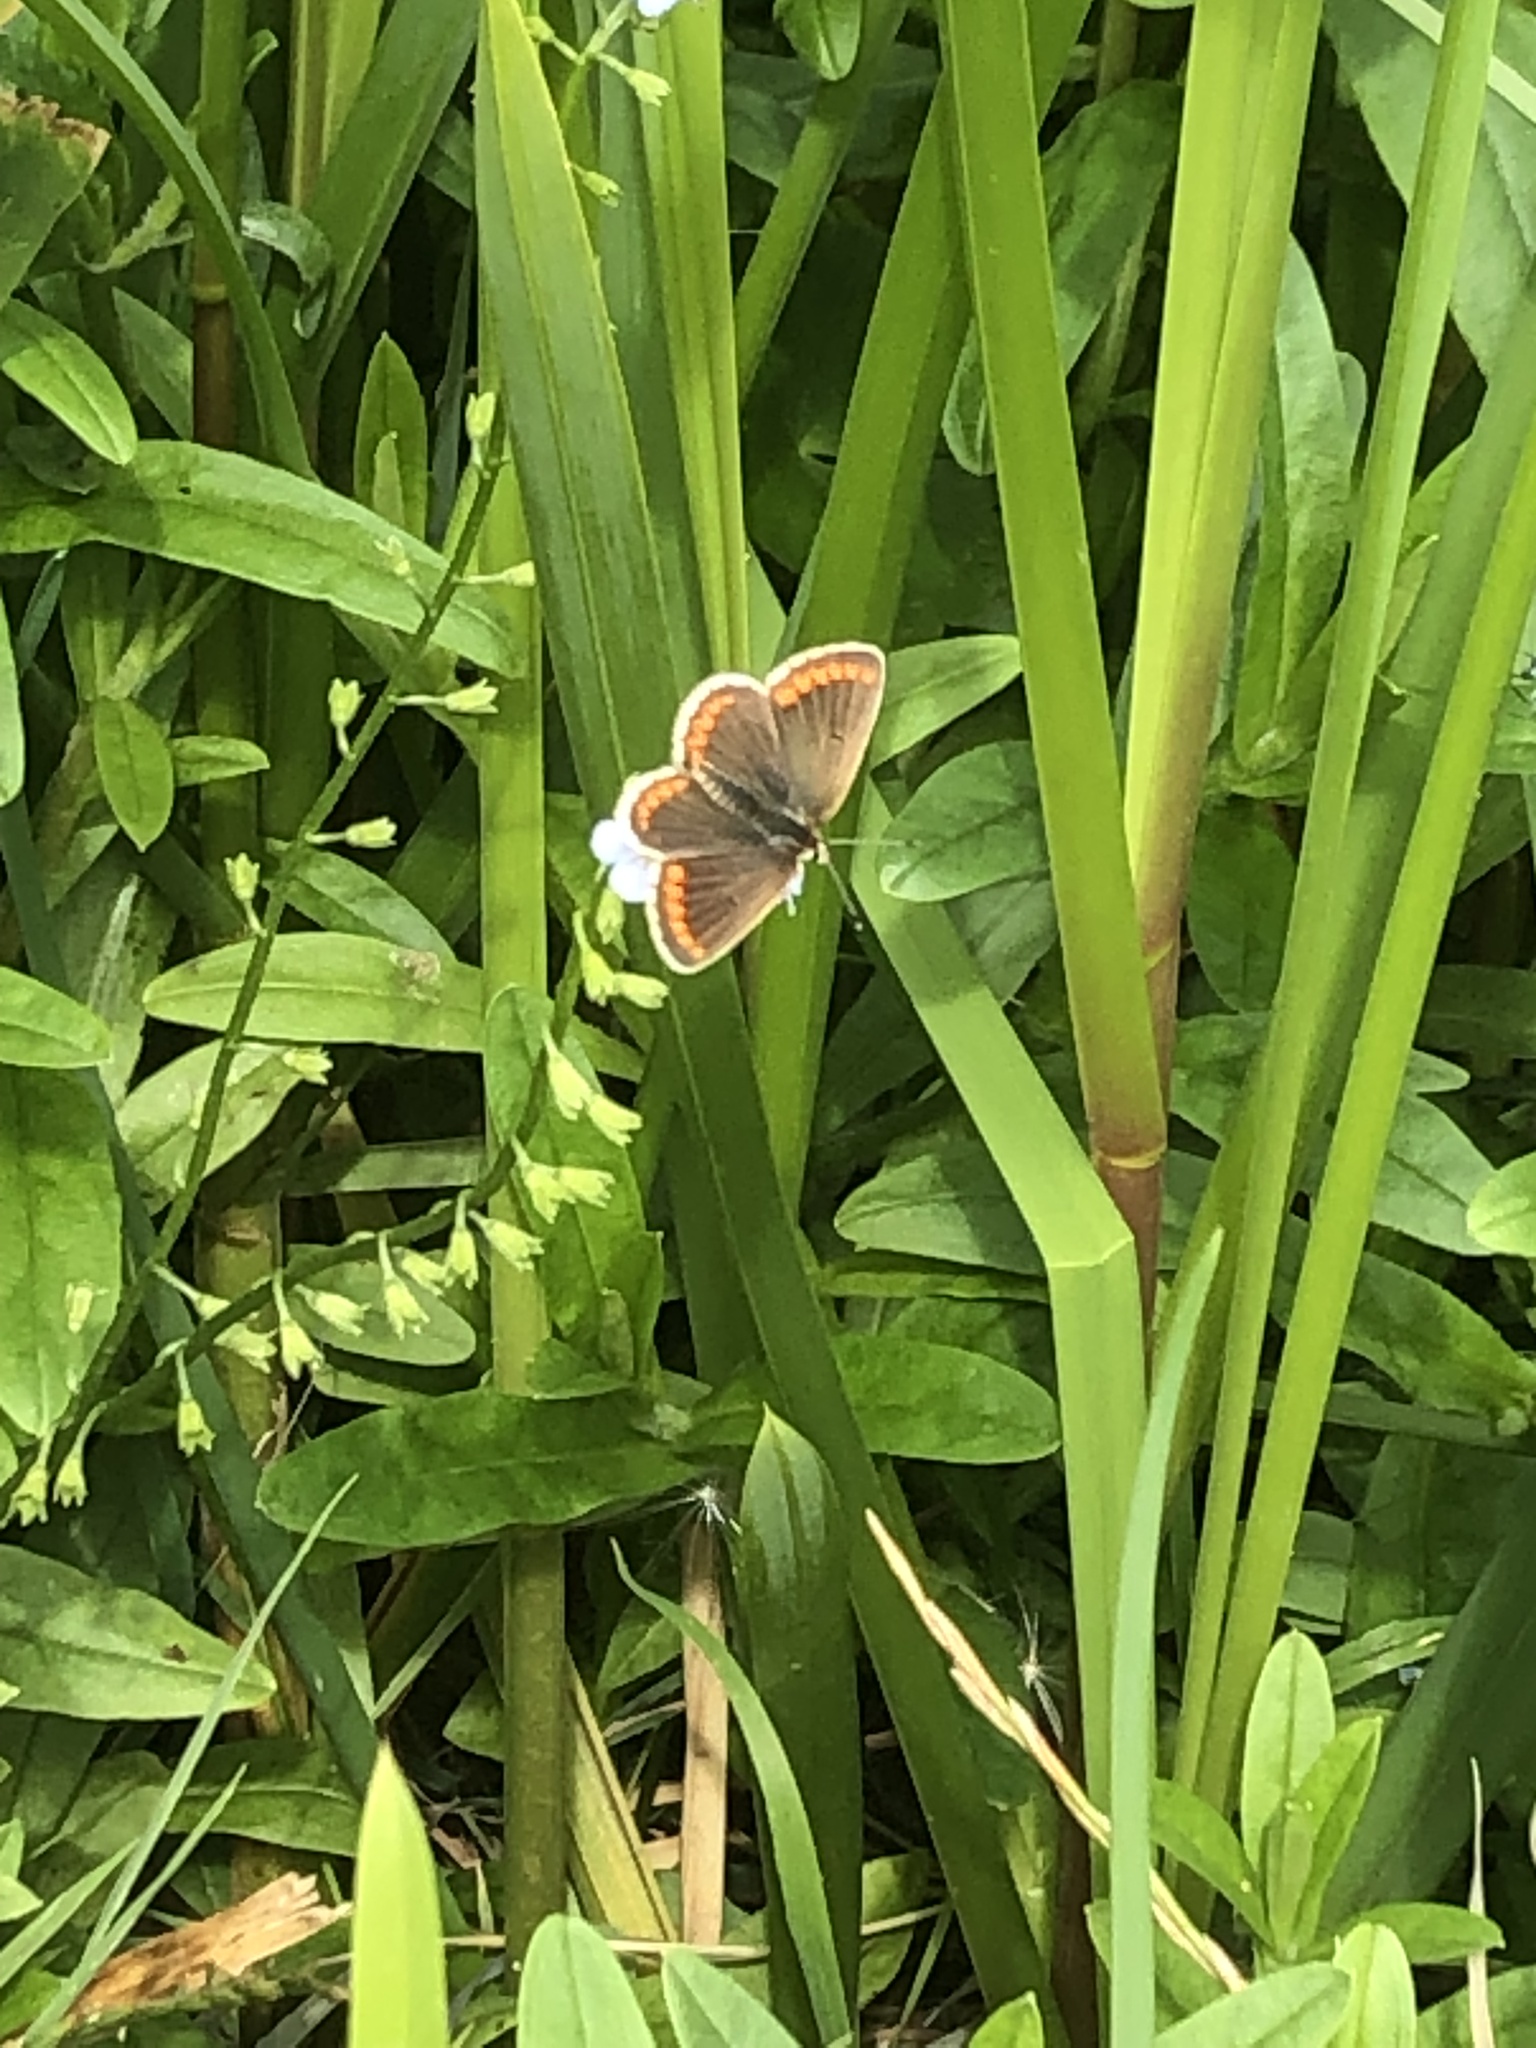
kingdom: Animalia
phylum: Arthropoda
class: Insecta
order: Lepidoptera
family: Lycaenidae
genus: Aricia
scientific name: Aricia agestis
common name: Brown argus
